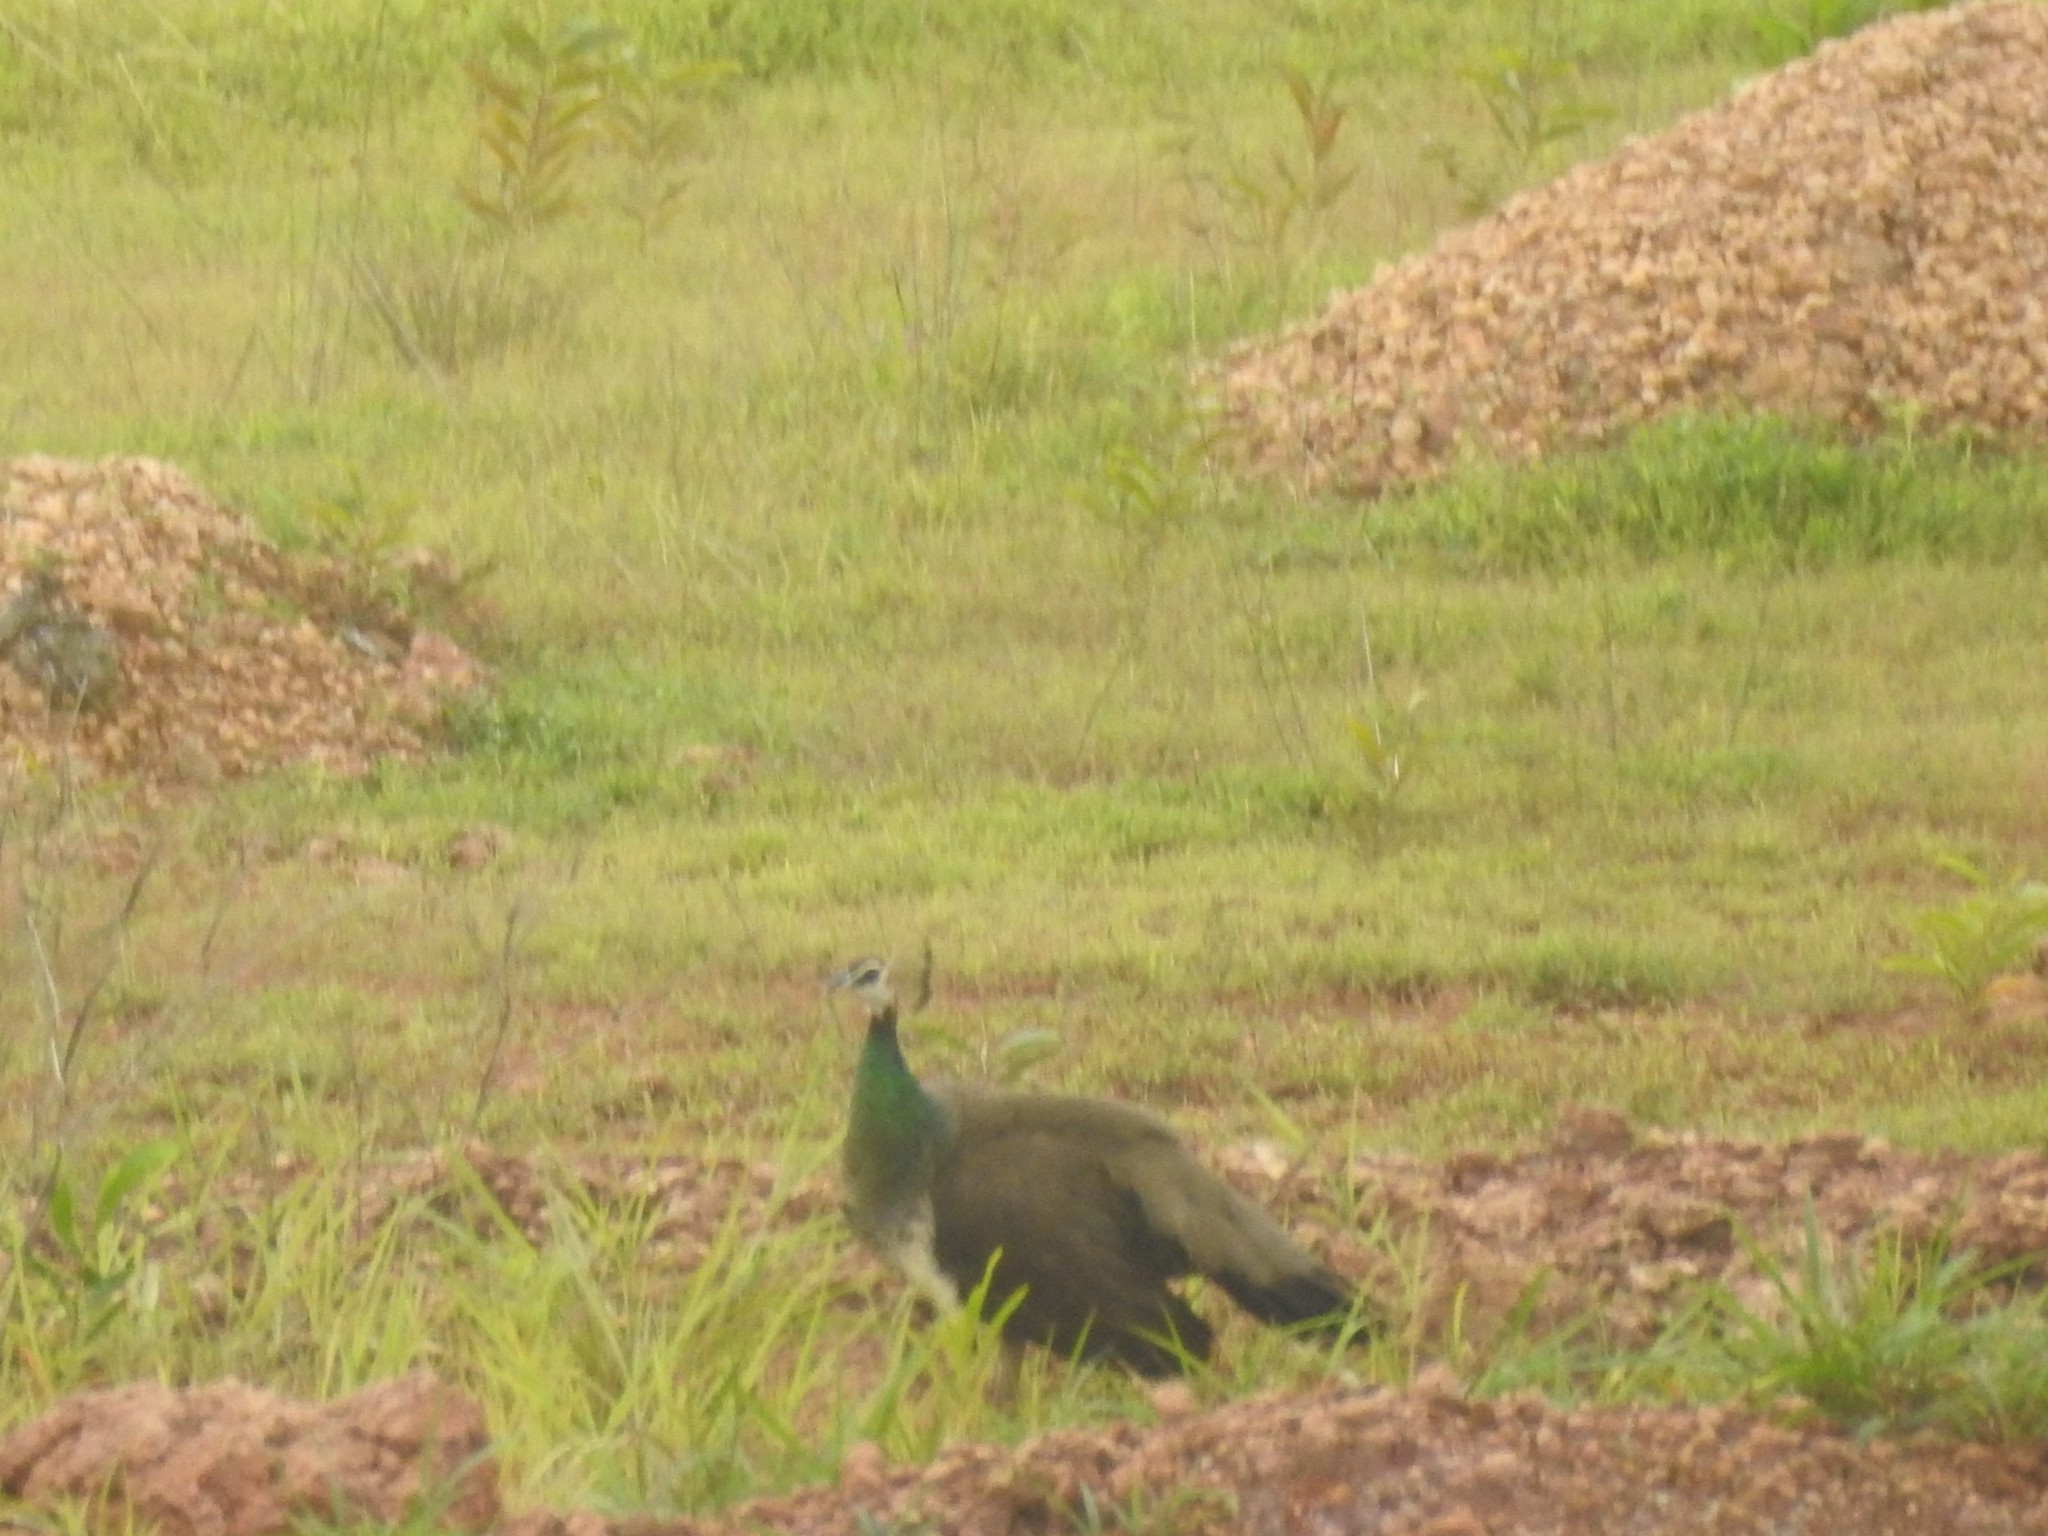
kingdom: Animalia
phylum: Chordata
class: Aves
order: Galliformes
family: Phasianidae
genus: Pavo
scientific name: Pavo cristatus
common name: Indian peafowl
